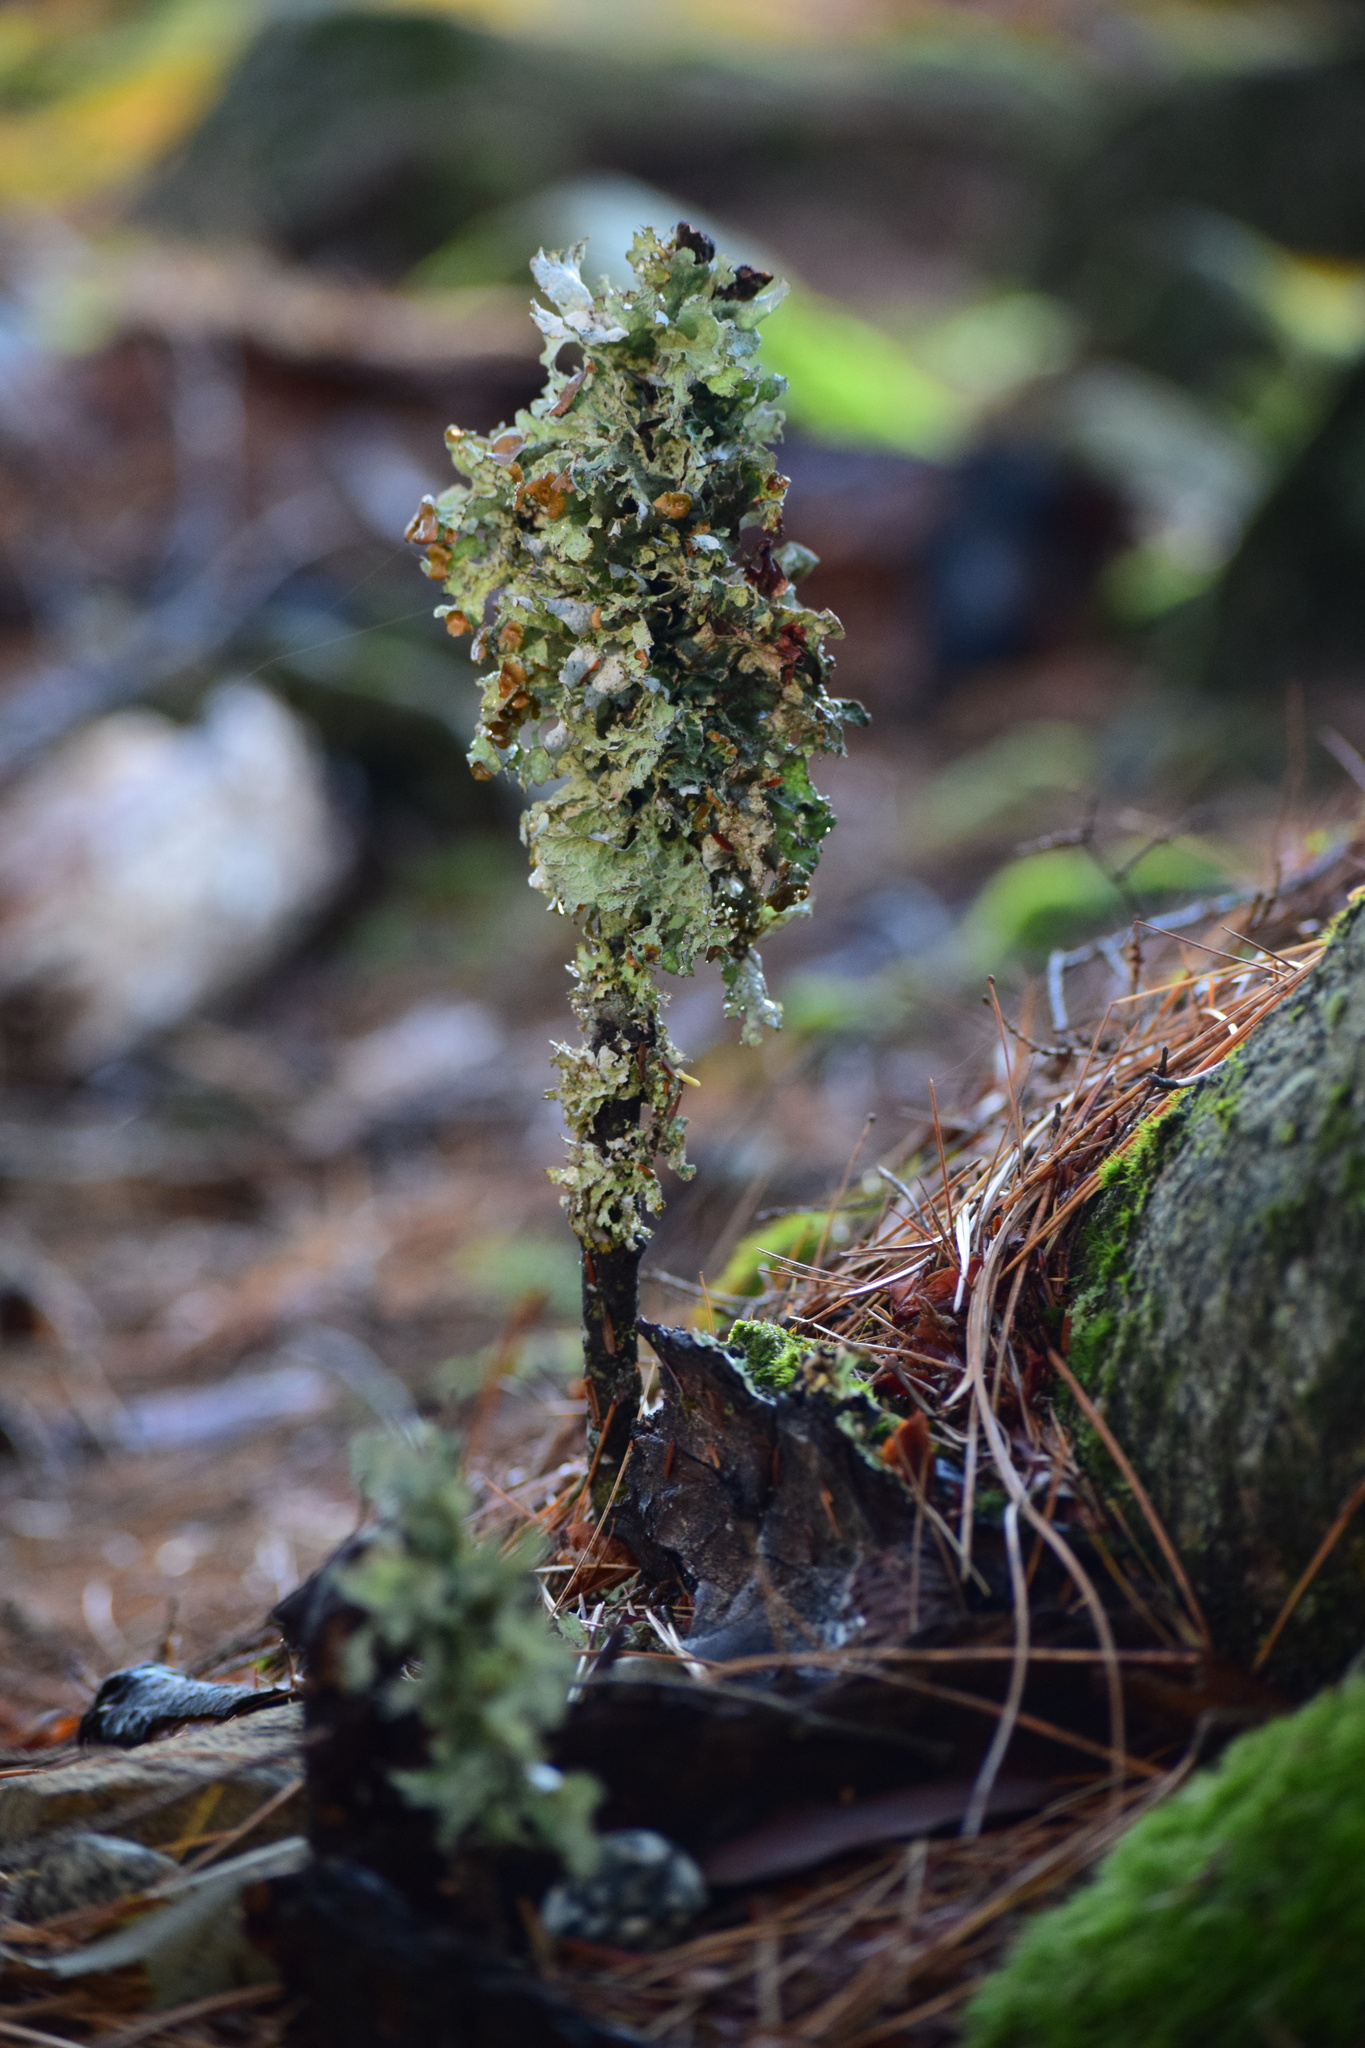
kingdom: Fungi
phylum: Ascomycota
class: Lecanoromycetes
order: Lecanorales
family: Parmeliaceae
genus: Platismatia
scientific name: Platismatia tuckermanii
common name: Crumpled rag lichen
